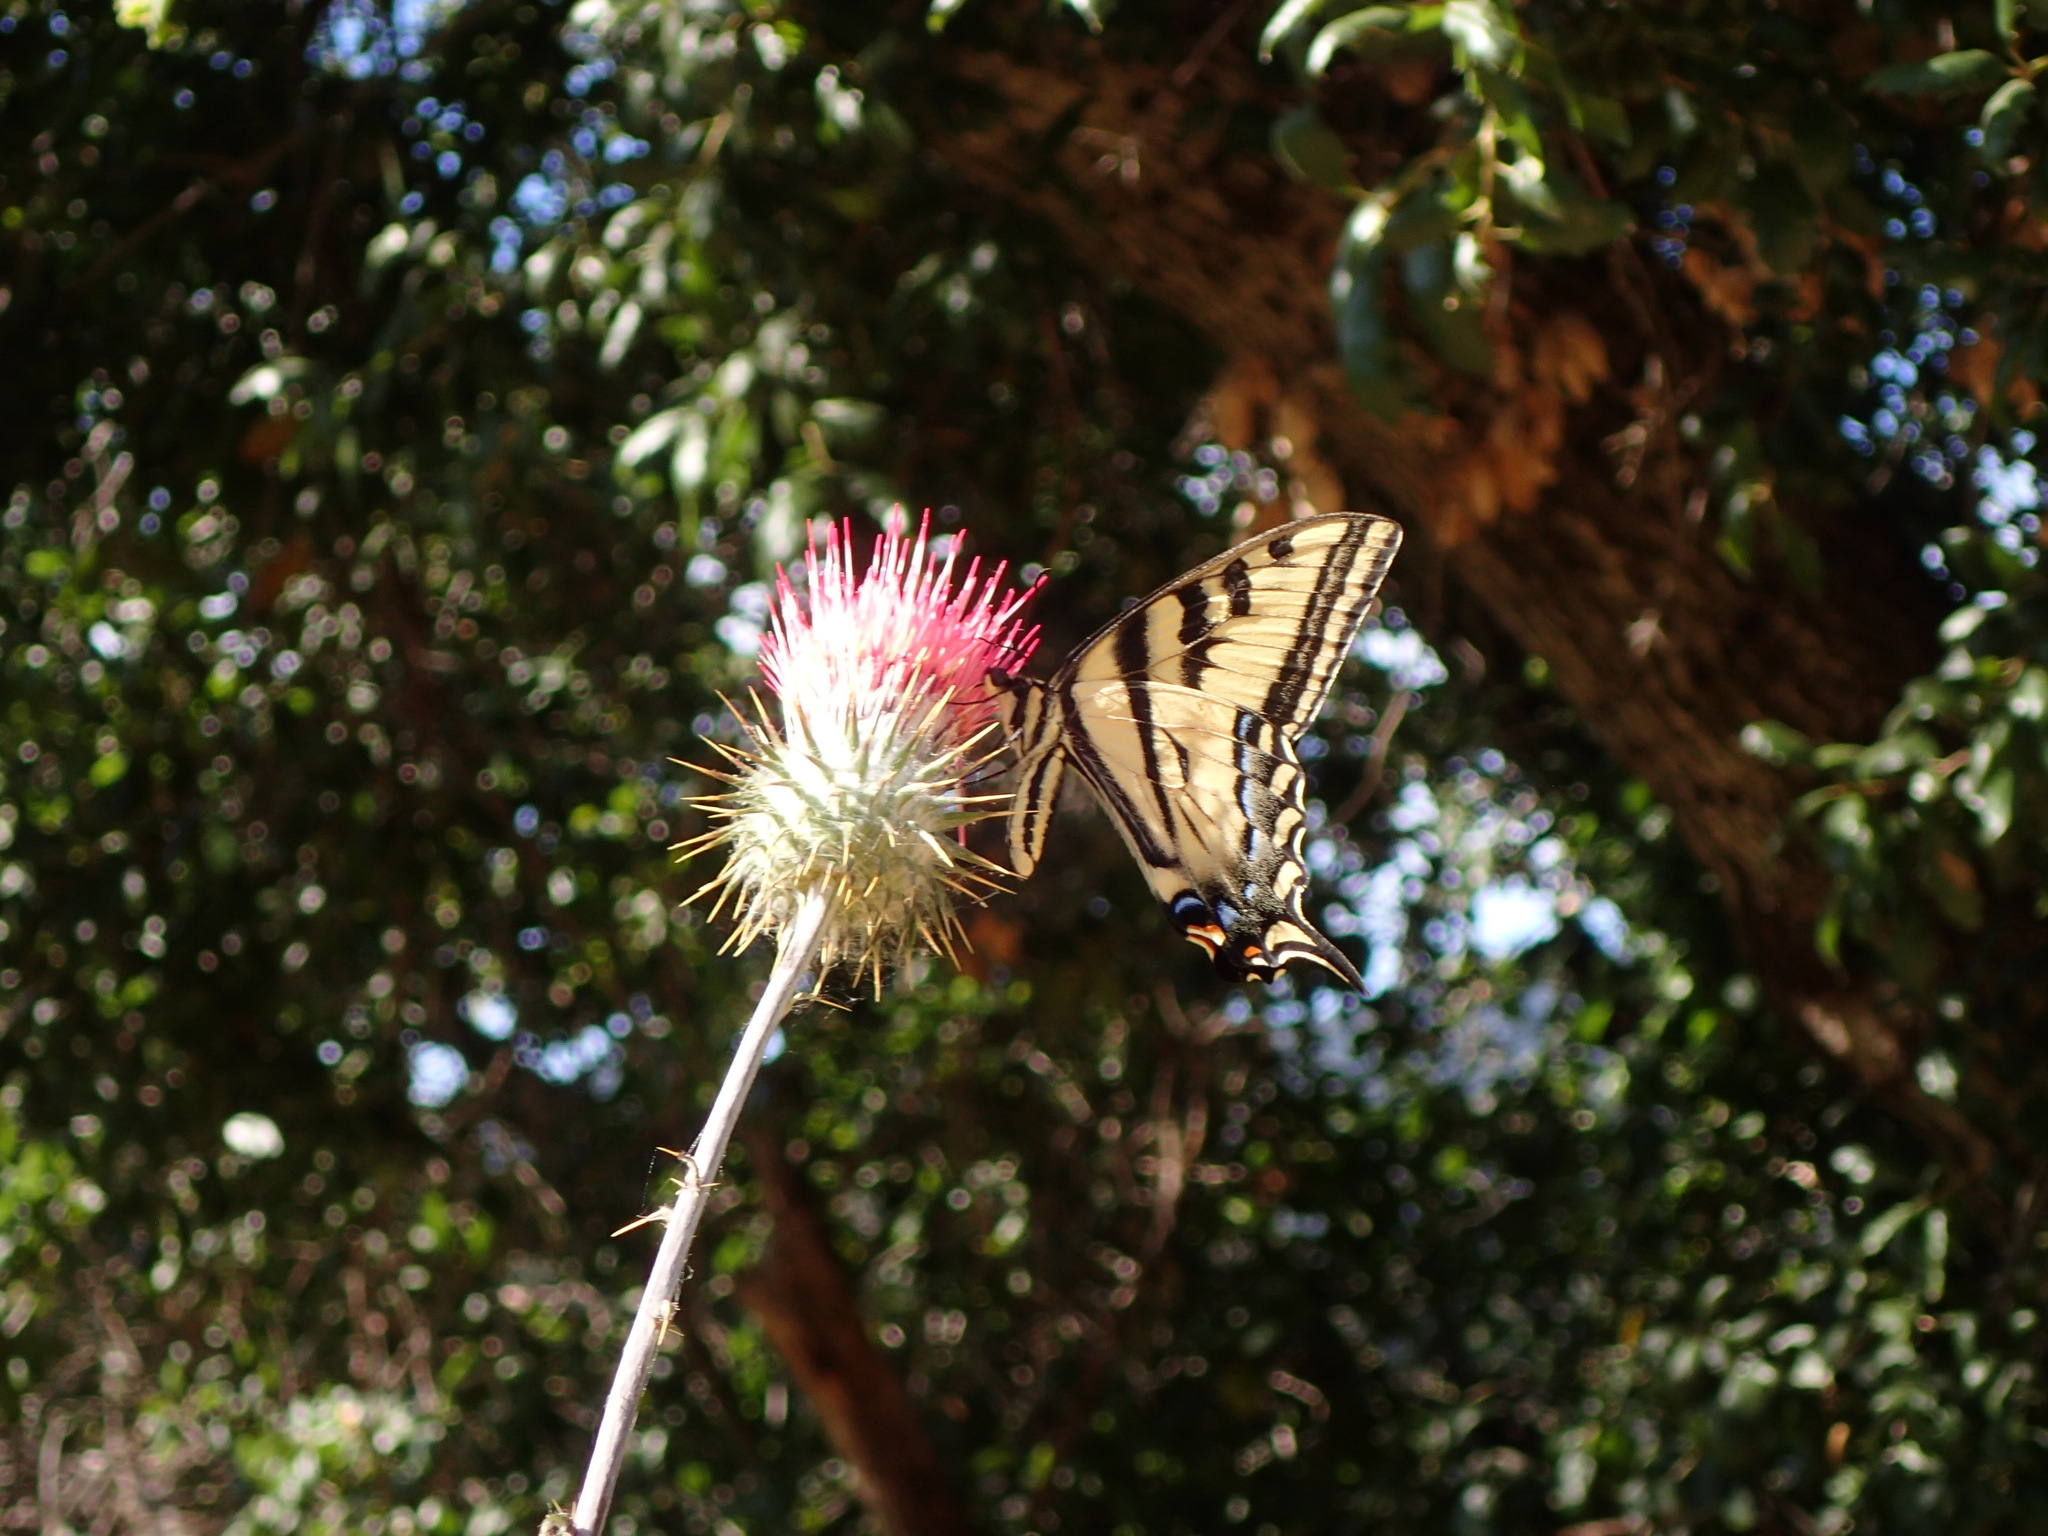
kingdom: Animalia
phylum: Arthropoda
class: Insecta
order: Lepidoptera
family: Papilionidae
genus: Papilio
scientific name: Papilio rutulus
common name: Western tiger swallowtail
